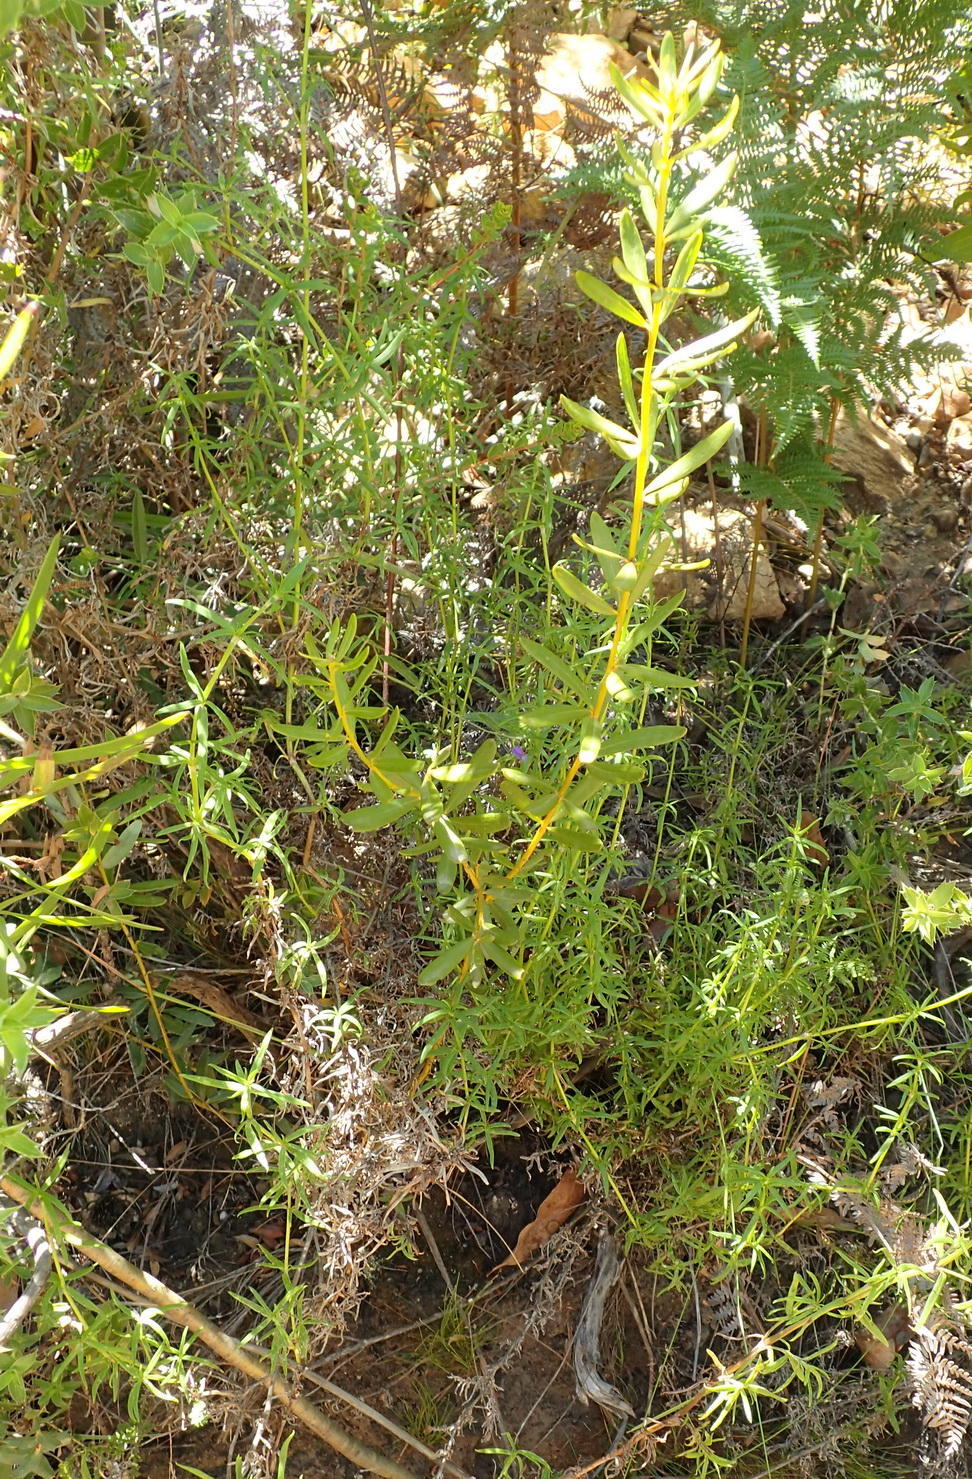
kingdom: Plantae
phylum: Tracheophyta
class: Magnoliopsida
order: Fabales
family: Fabaceae
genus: Cyclopia
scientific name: Cyclopia intermedia
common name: Mountain tea
